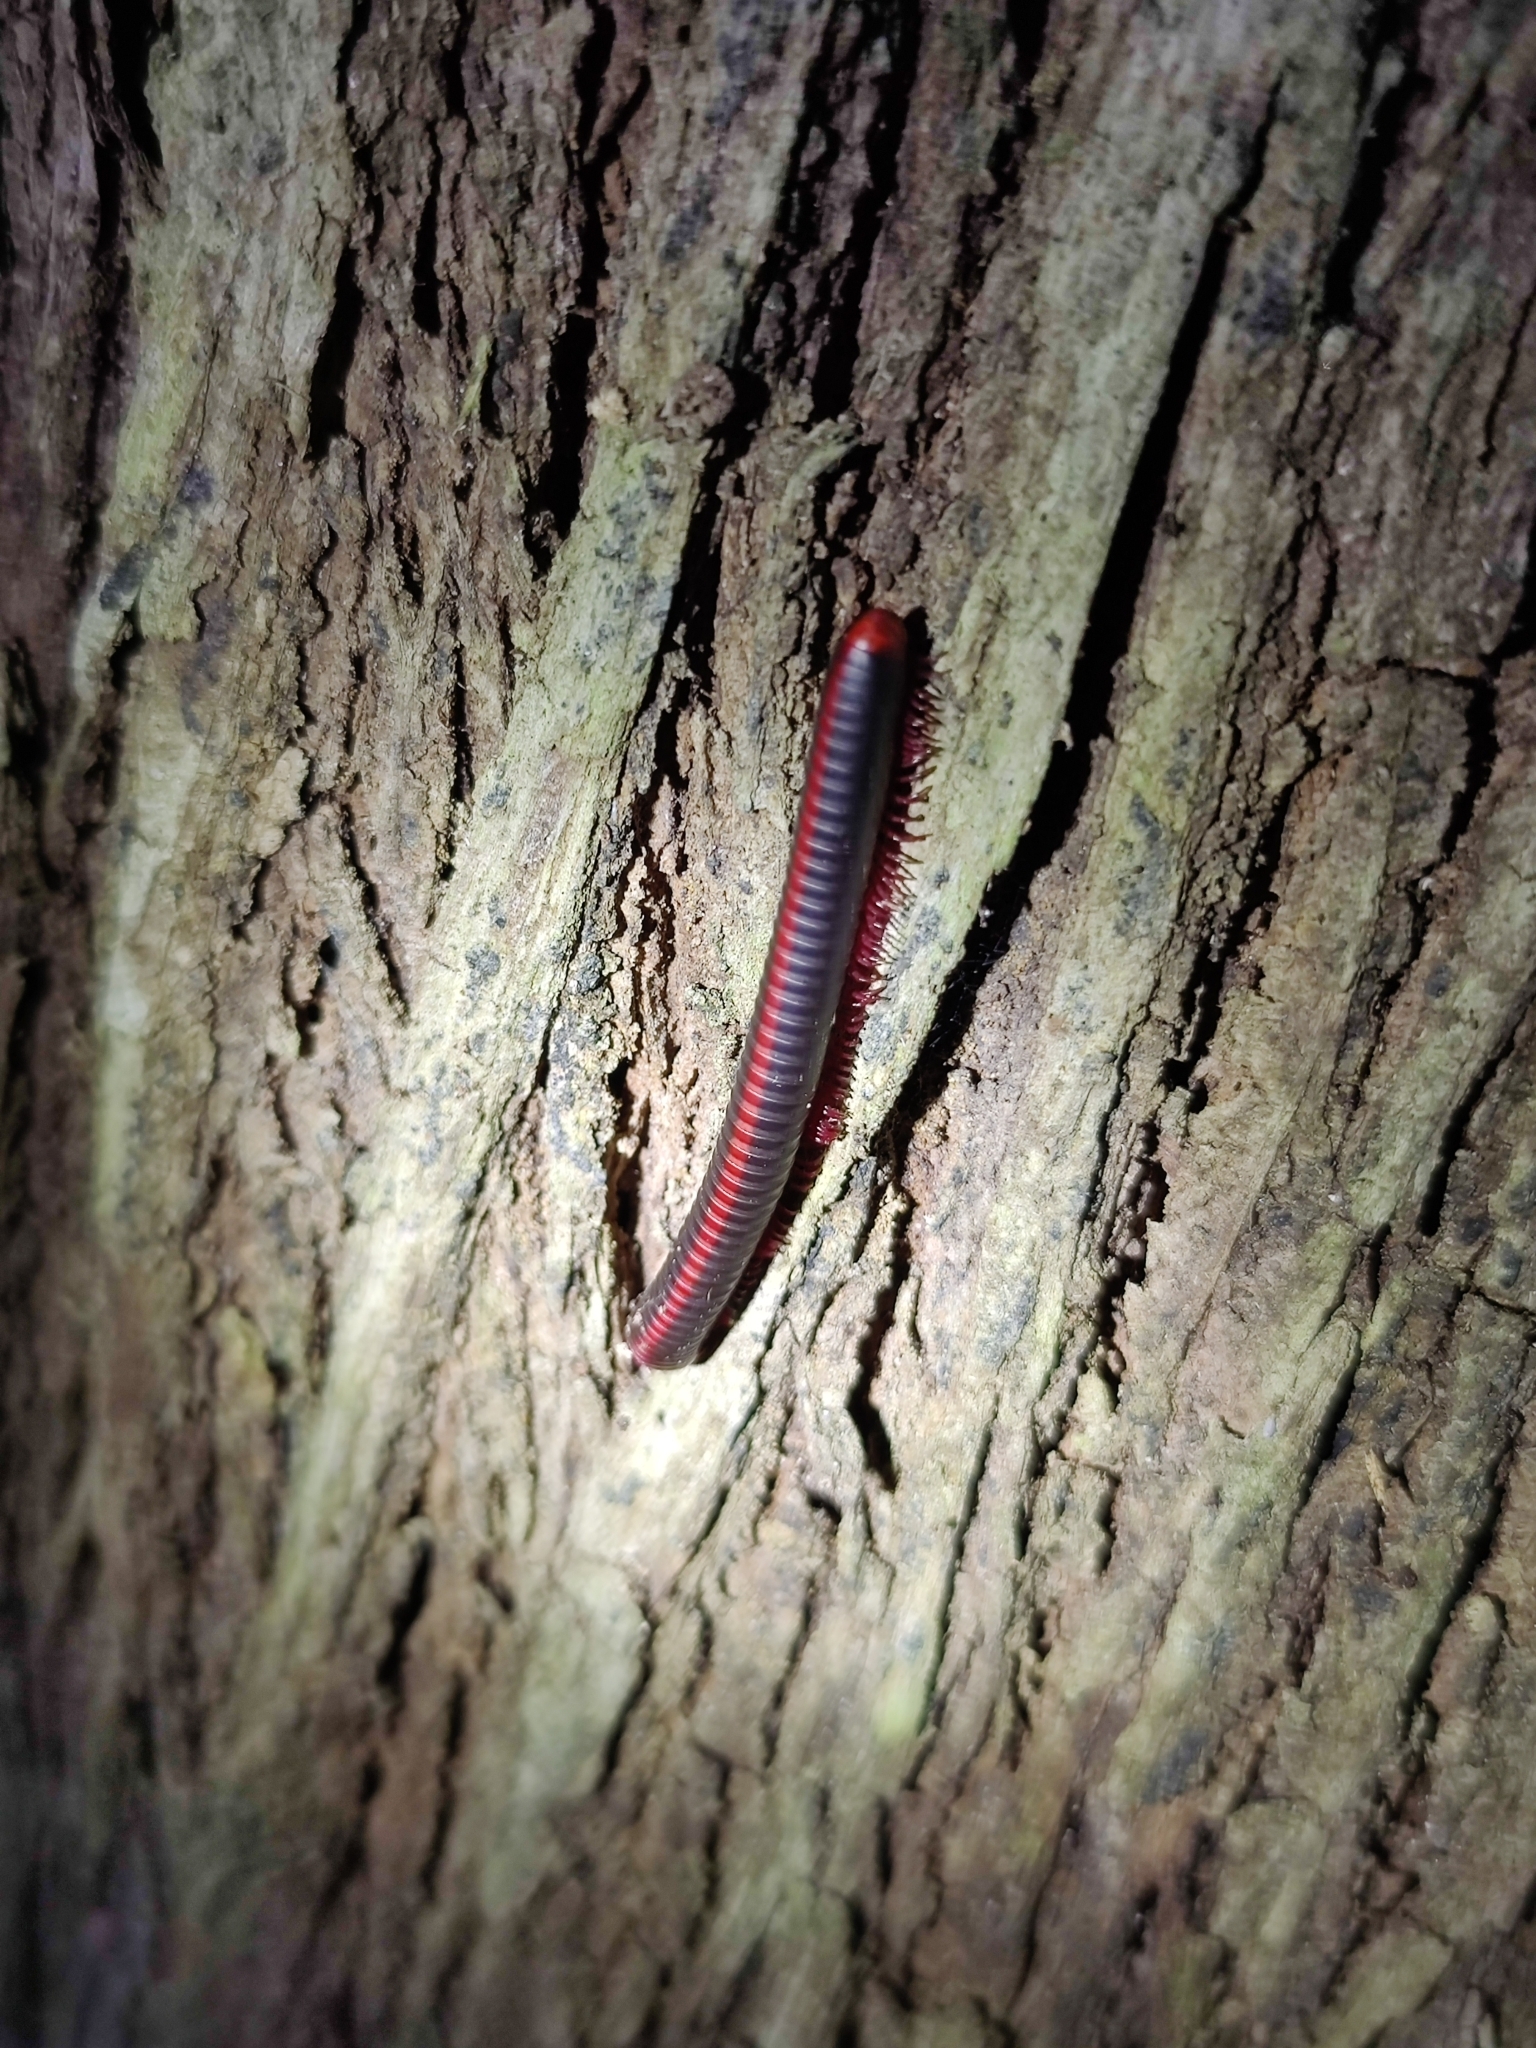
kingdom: Animalia
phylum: Arthropoda
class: Diplopoda
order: Spirobolida
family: Pachybolidae
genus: Xenobolus
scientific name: Xenobolus carnifex
